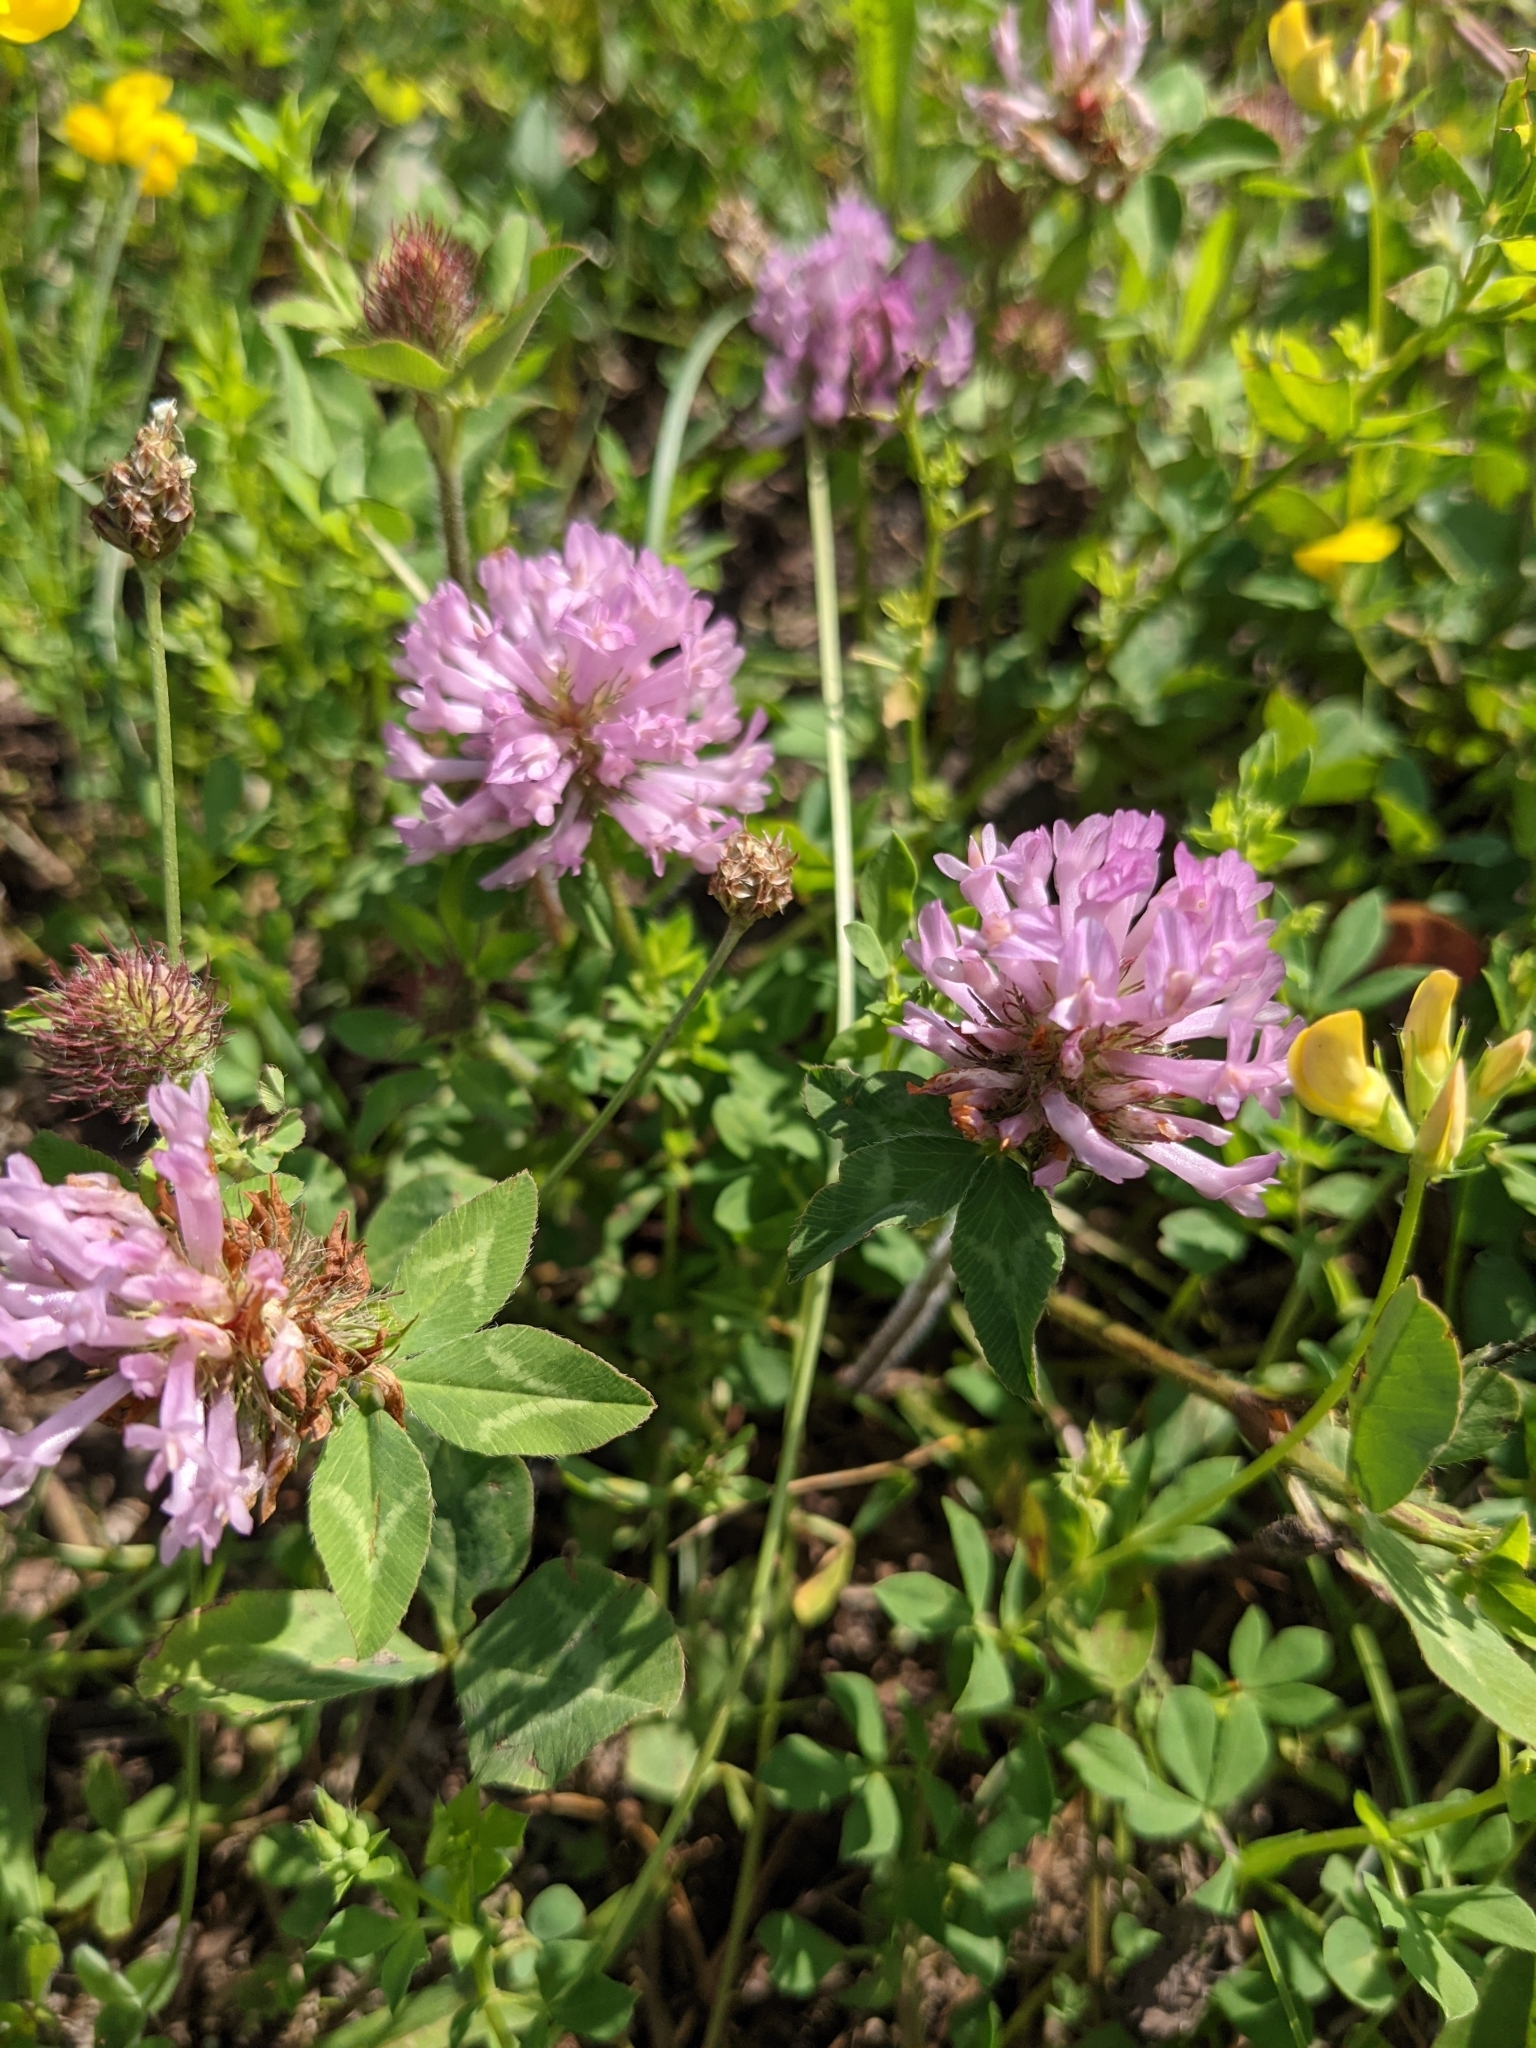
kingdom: Plantae
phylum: Tracheophyta
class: Magnoliopsida
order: Fabales
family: Fabaceae
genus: Trifolium
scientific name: Trifolium pratense
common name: Red clover
